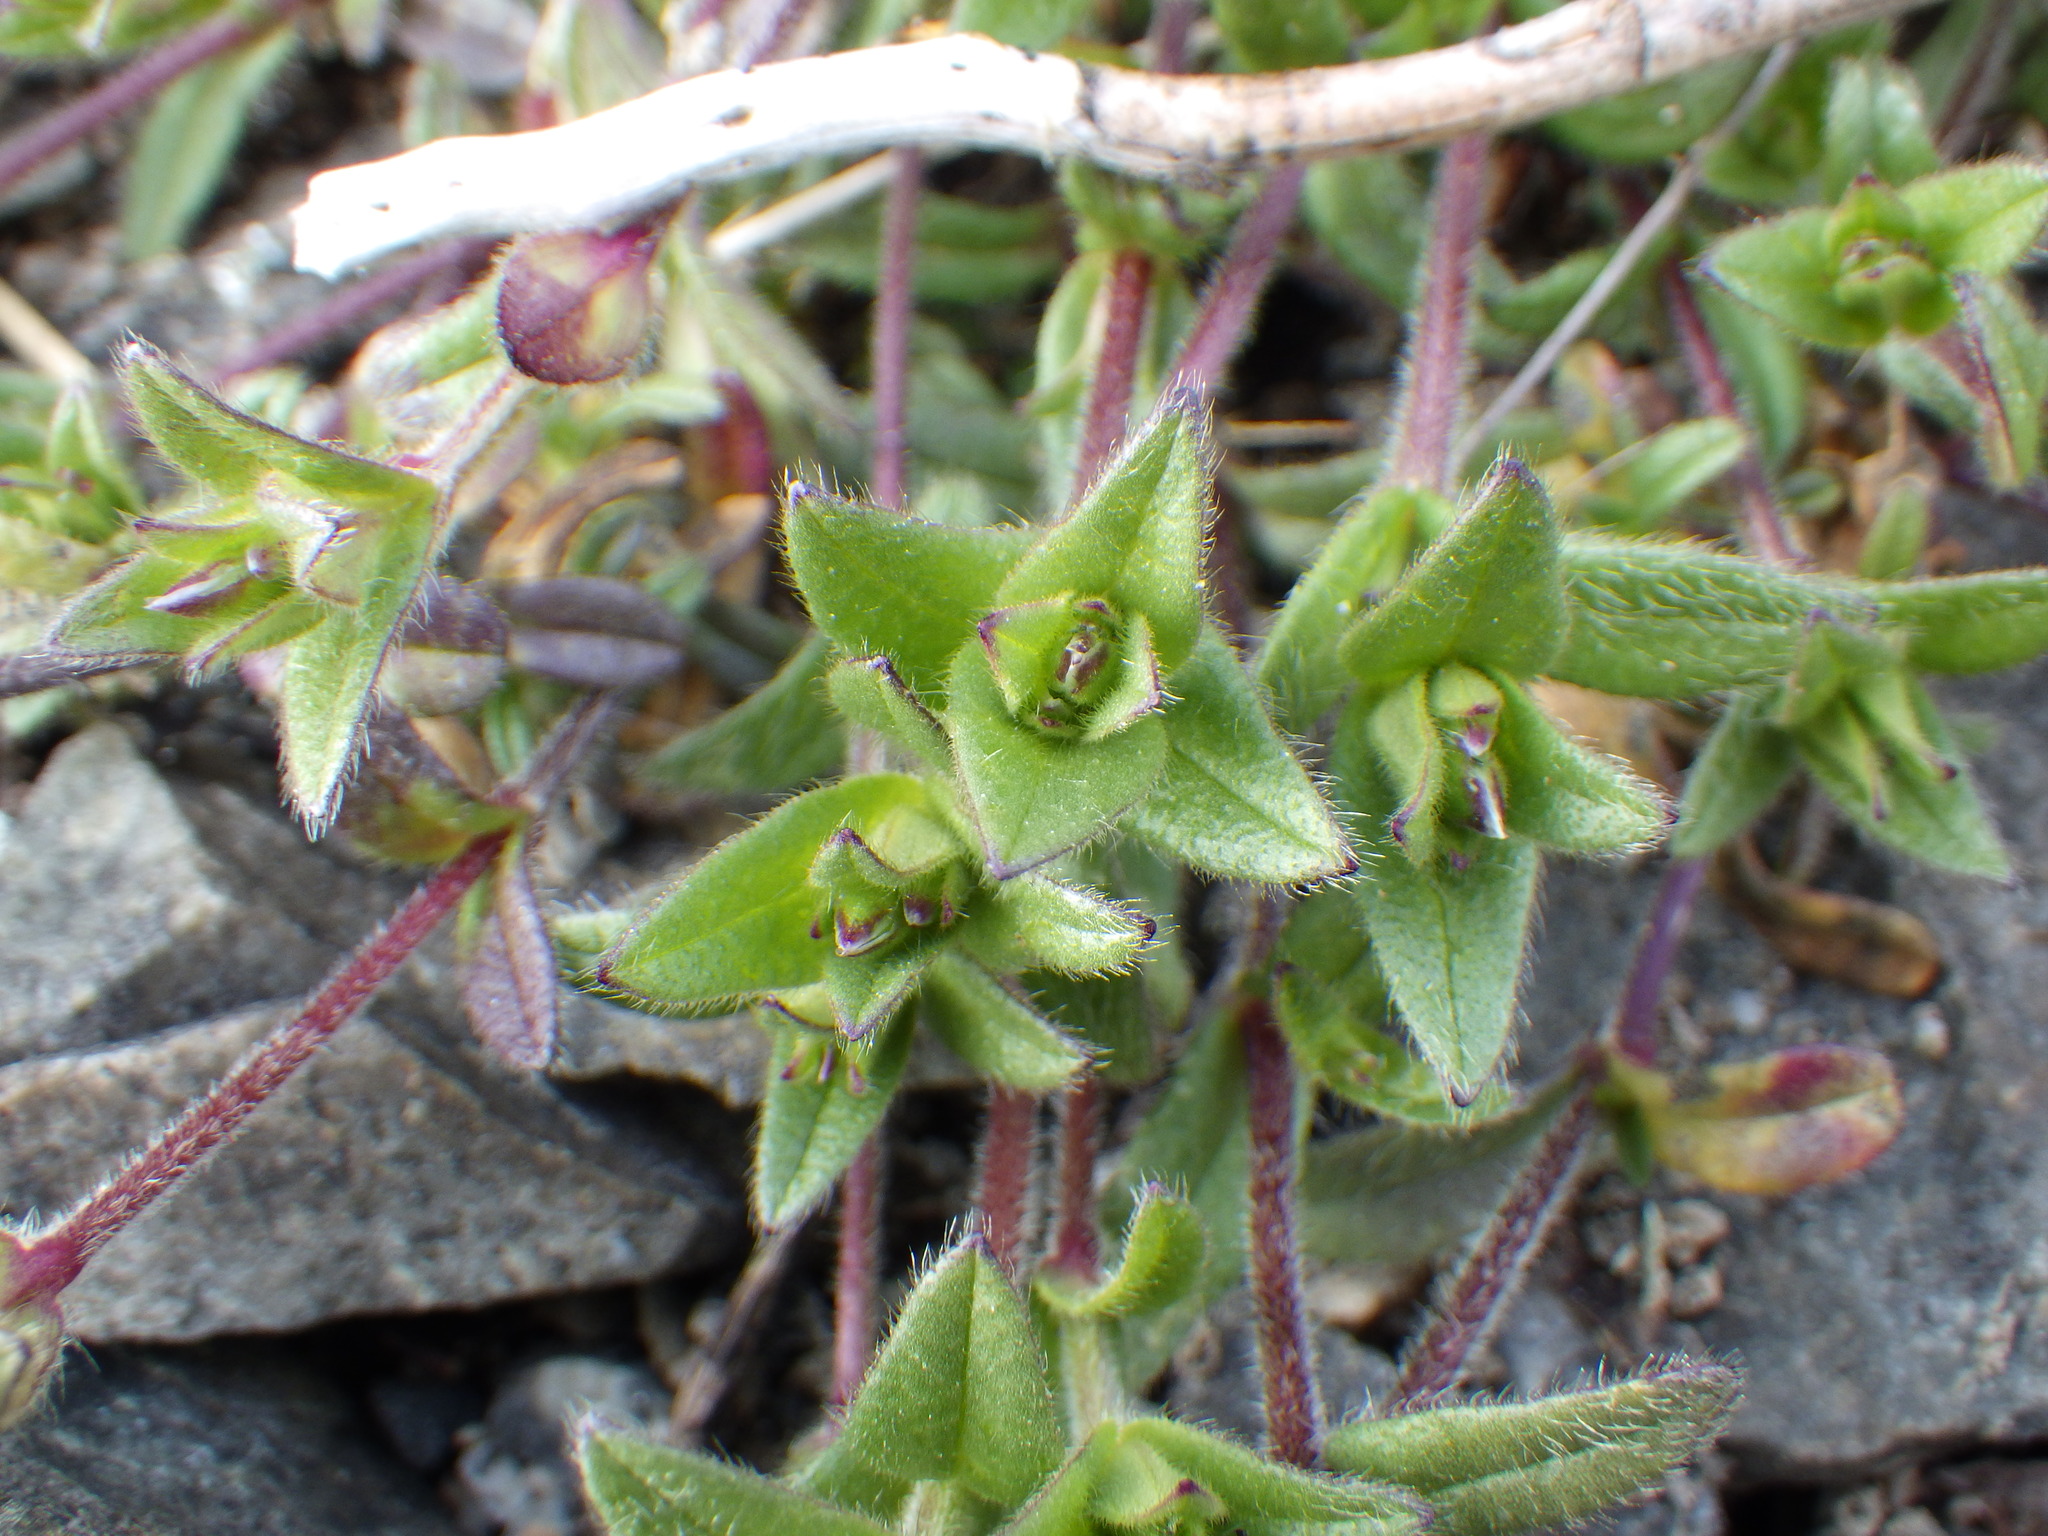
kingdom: Plantae
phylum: Tracheophyta
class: Magnoliopsida
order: Caryophyllales
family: Caryophyllaceae
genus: Cerastium
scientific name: Cerastium fontanum
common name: Common mouse-ear
